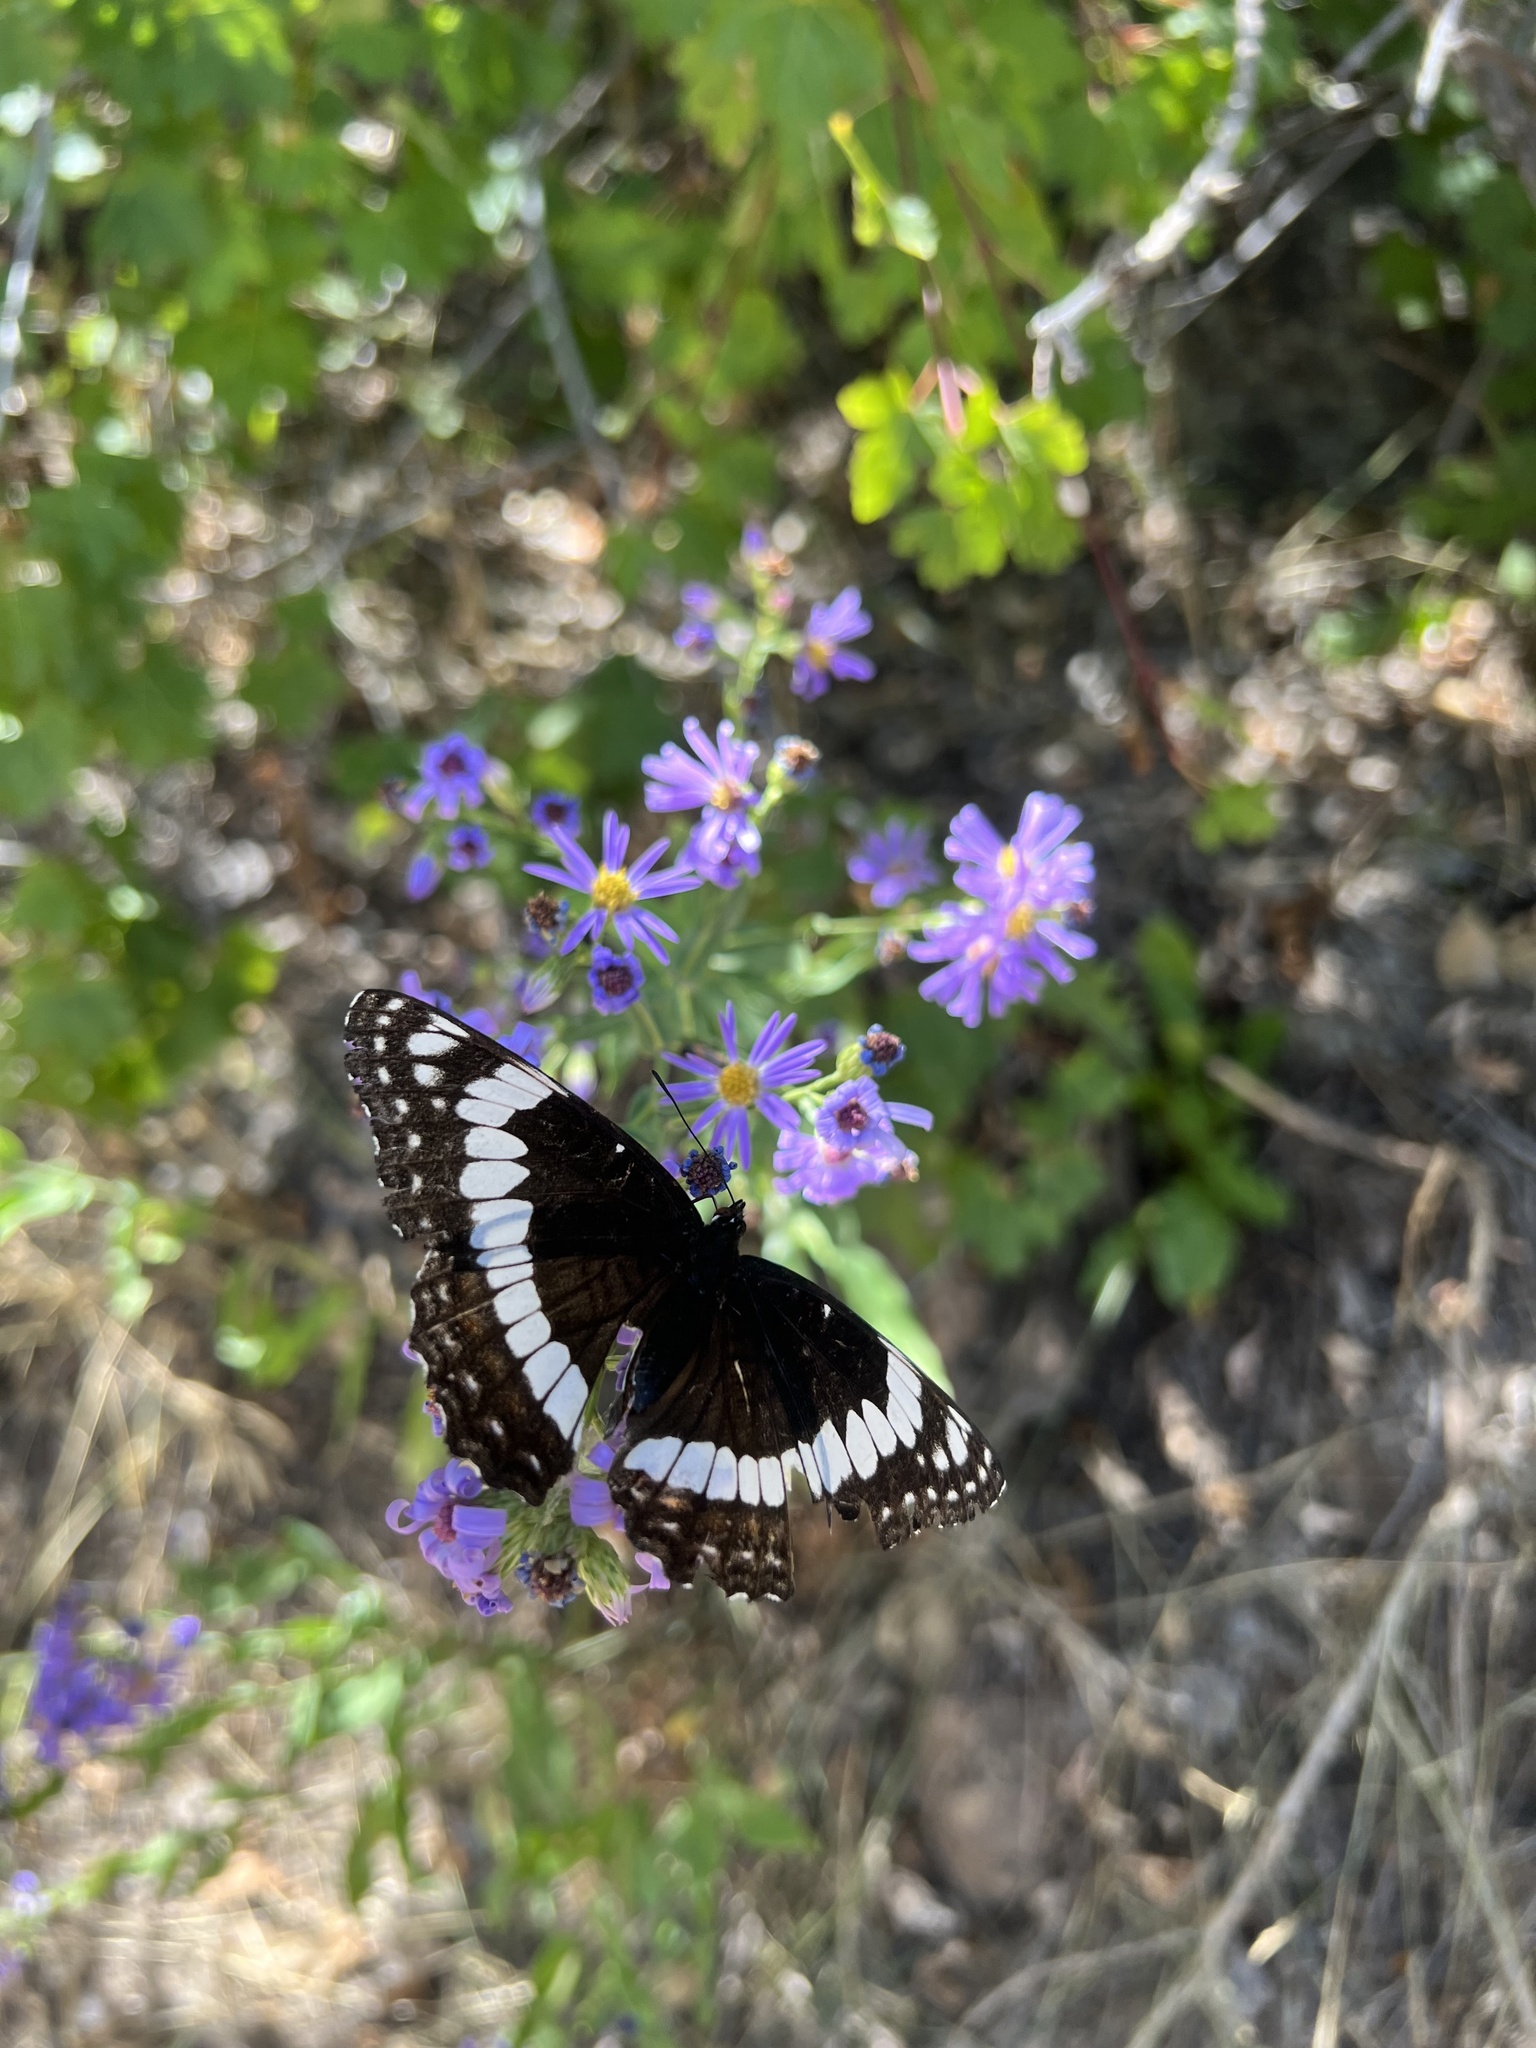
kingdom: Animalia
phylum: Arthropoda
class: Insecta
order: Lepidoptera
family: Nymphalidae
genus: Limenitis
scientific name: Limenitis weidemeyerii
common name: Weidemeyer's admiral
